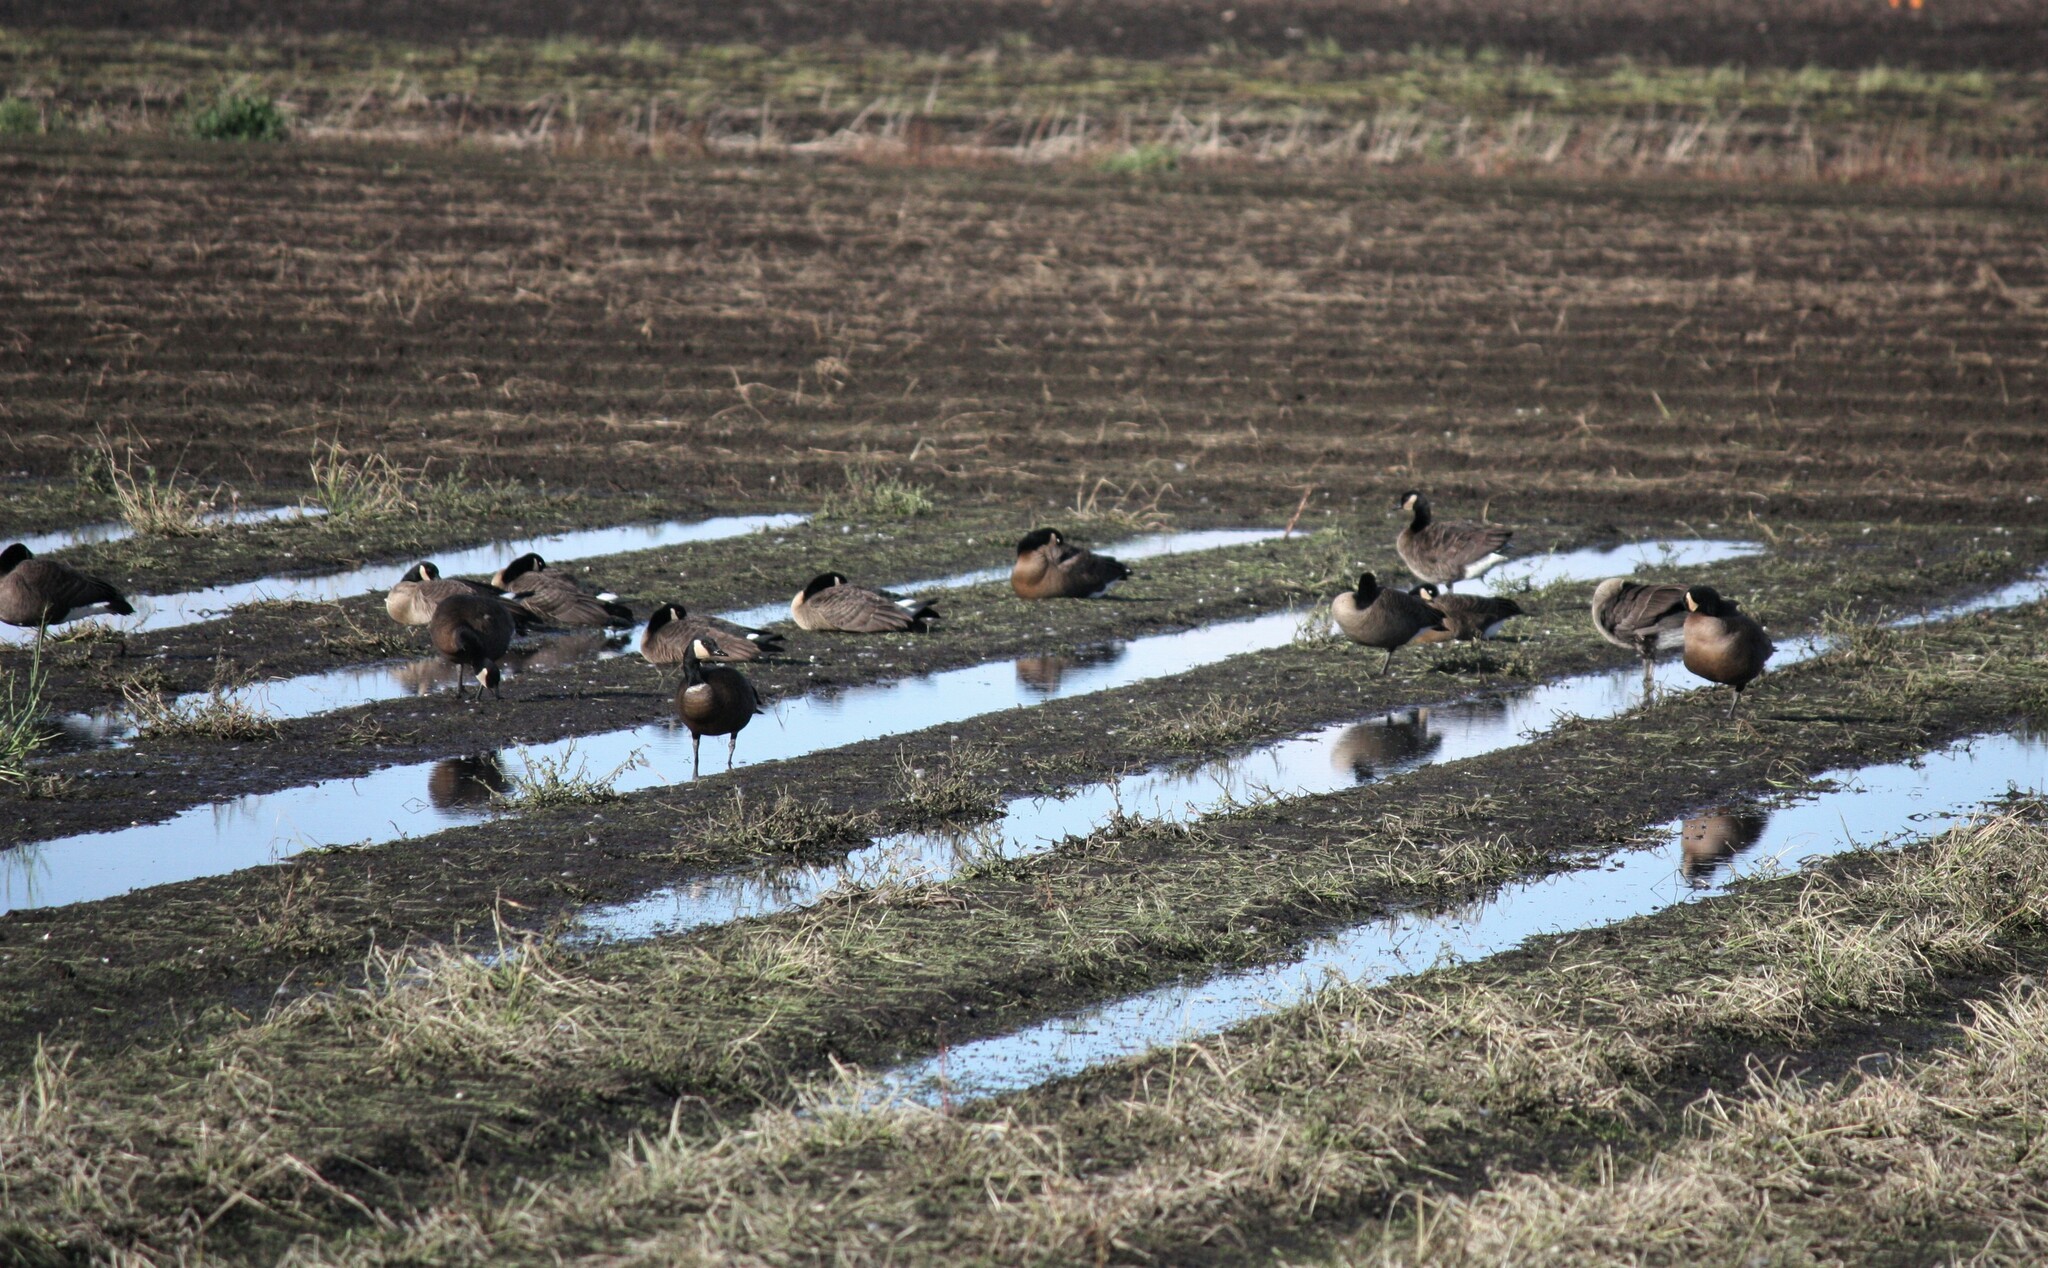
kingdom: Animalia
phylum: Chordata
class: Aves
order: Anseriformes
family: Anatidae
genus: Branta
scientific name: Branta canadensis
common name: Canada goose
